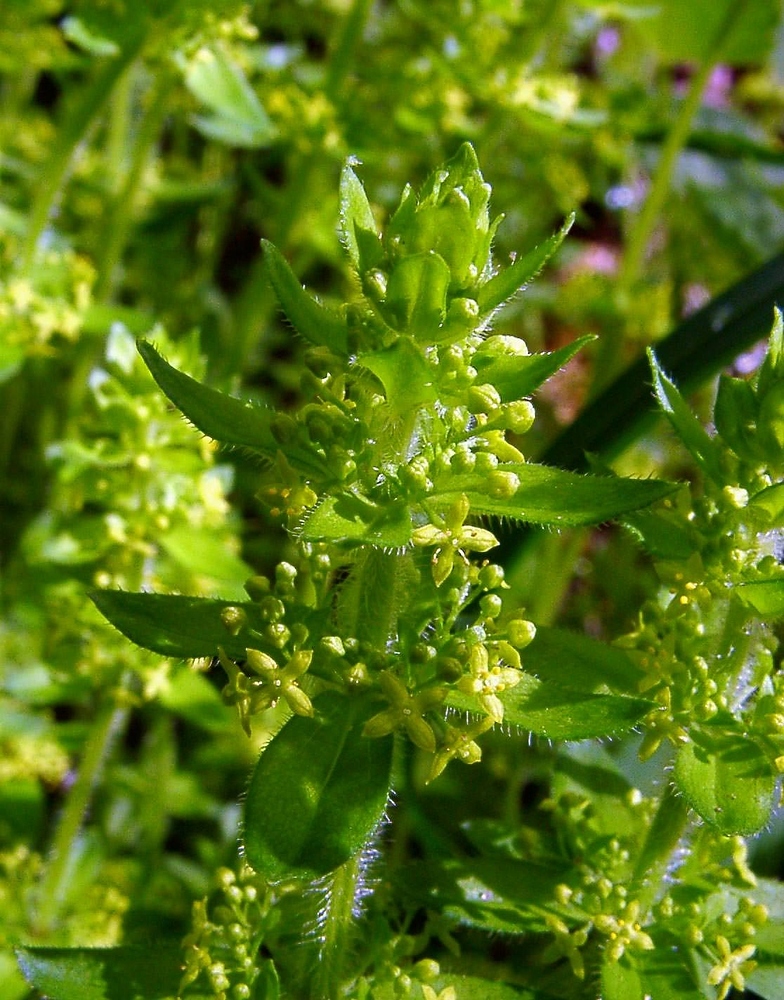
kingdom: Plantae
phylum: Tracheophyta
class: Magnoliopsida
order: Gentianales
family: Rubiaceae
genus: Cruciata
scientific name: Cruciata laevipes
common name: Crosswort
